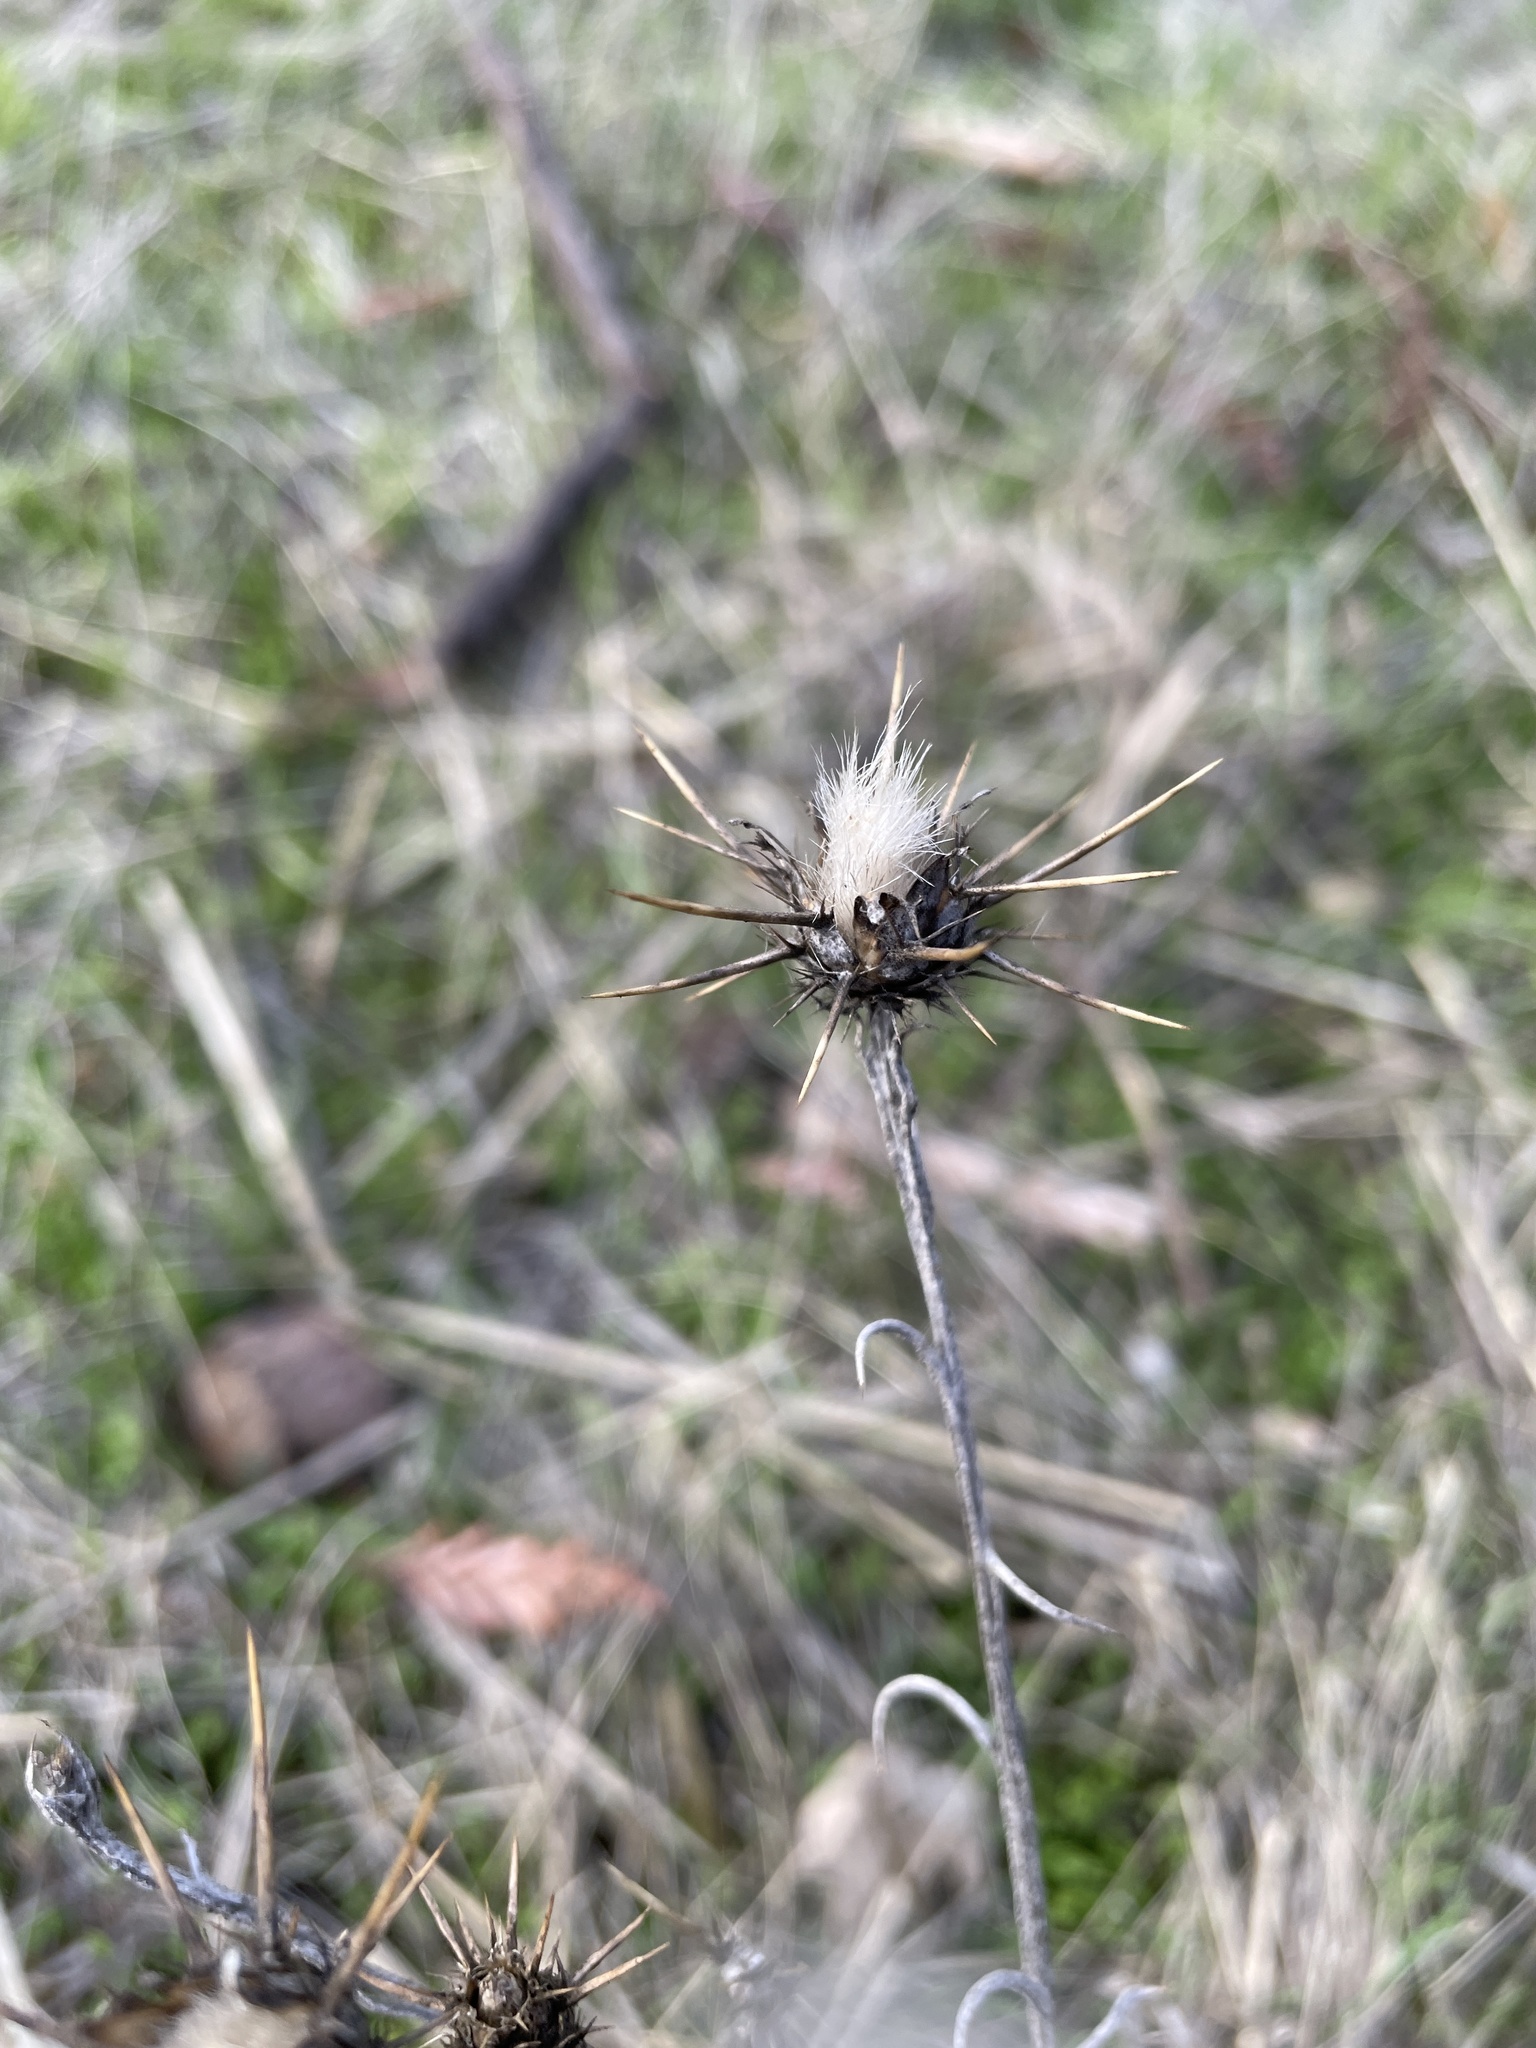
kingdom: Plantae
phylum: Tracheophyta
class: Magnoliopsida
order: Asterales
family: Asteraceae
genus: Centaurea
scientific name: Centaurea solstitialis
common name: Yellow star-thistle
